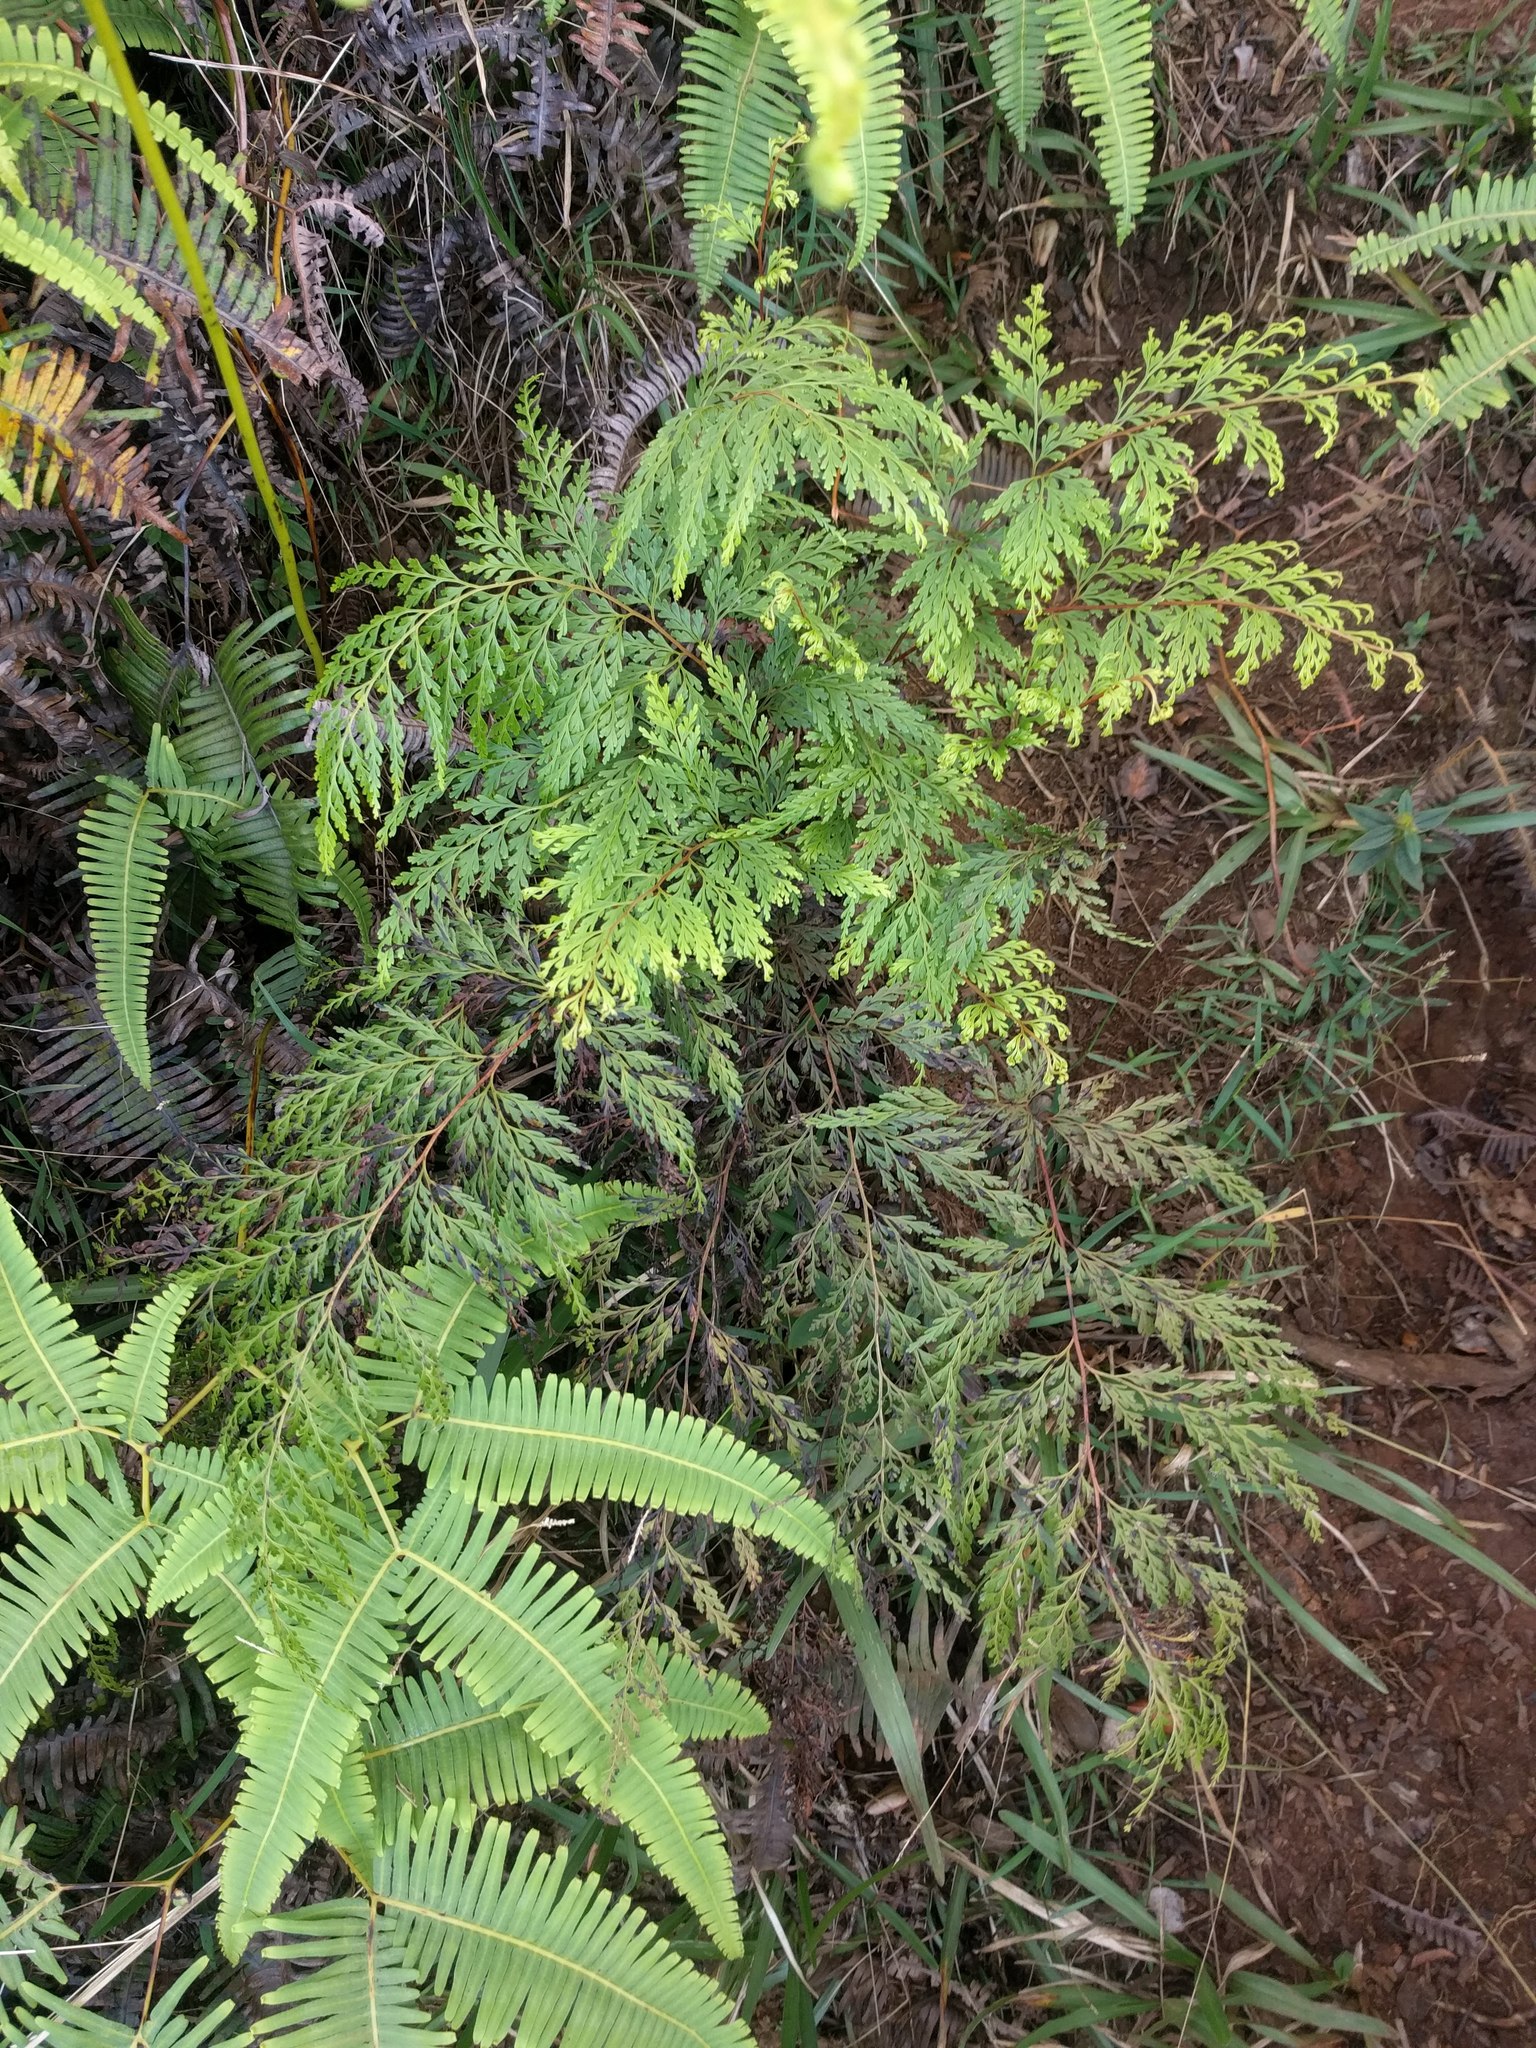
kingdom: Plantae
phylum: Tracheophyta
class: Polypodiopsida
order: Polypodiales
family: Lindsaeaceae
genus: Odontosoria
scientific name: Odontosoria chinensis
